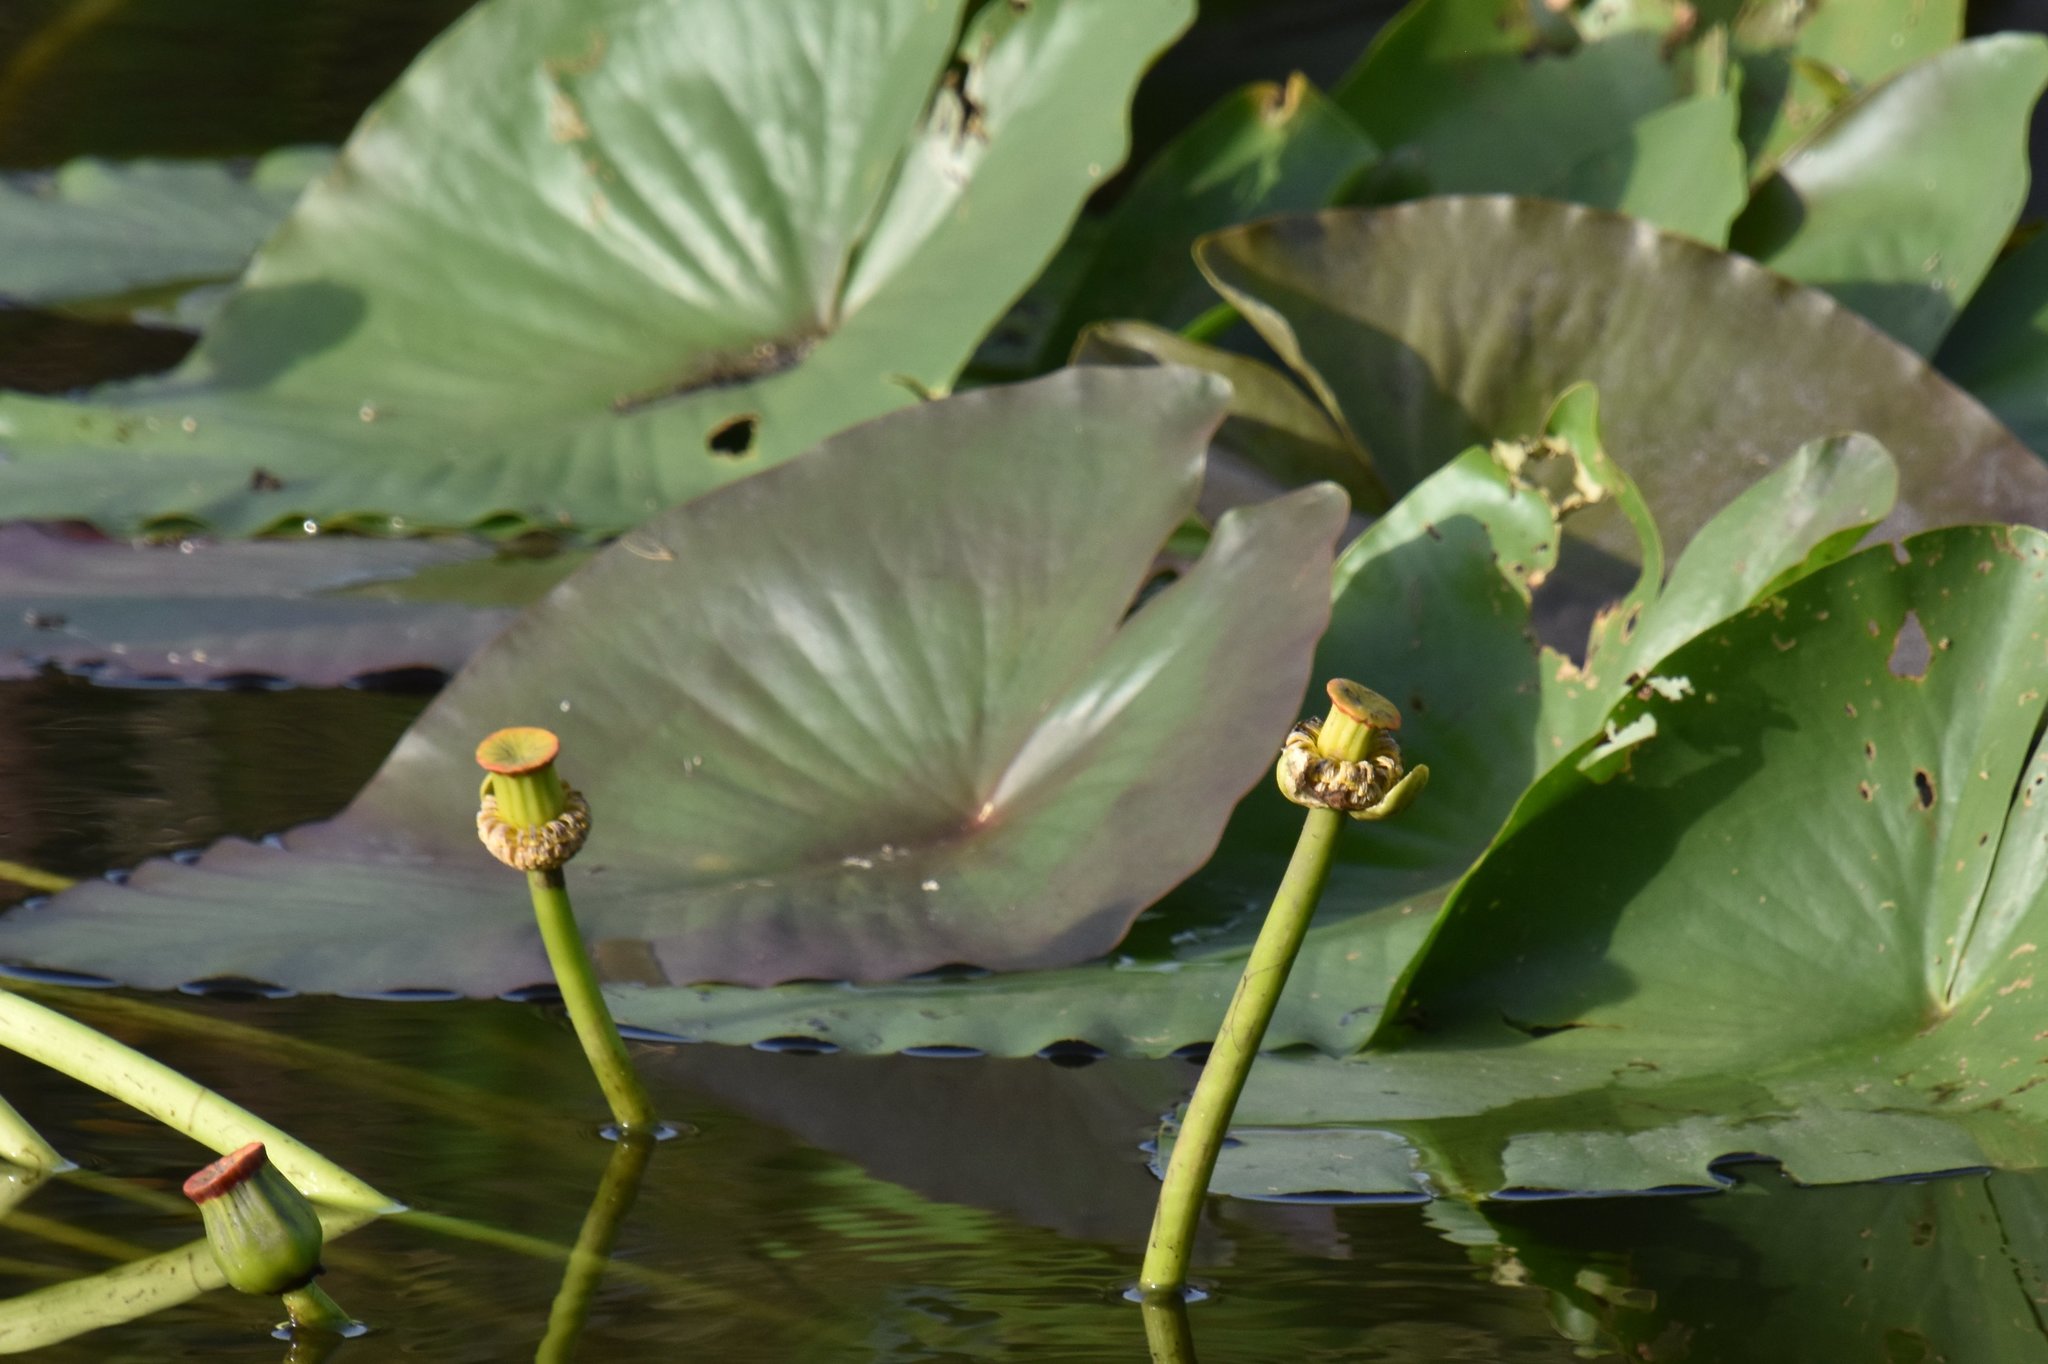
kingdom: Plantae
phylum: Tracheophyta
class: Magnoliopsida
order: Nymphaeales
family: Nymphaeaceae
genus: Nuphar
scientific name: Nuphar advena
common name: Spatter-dock
